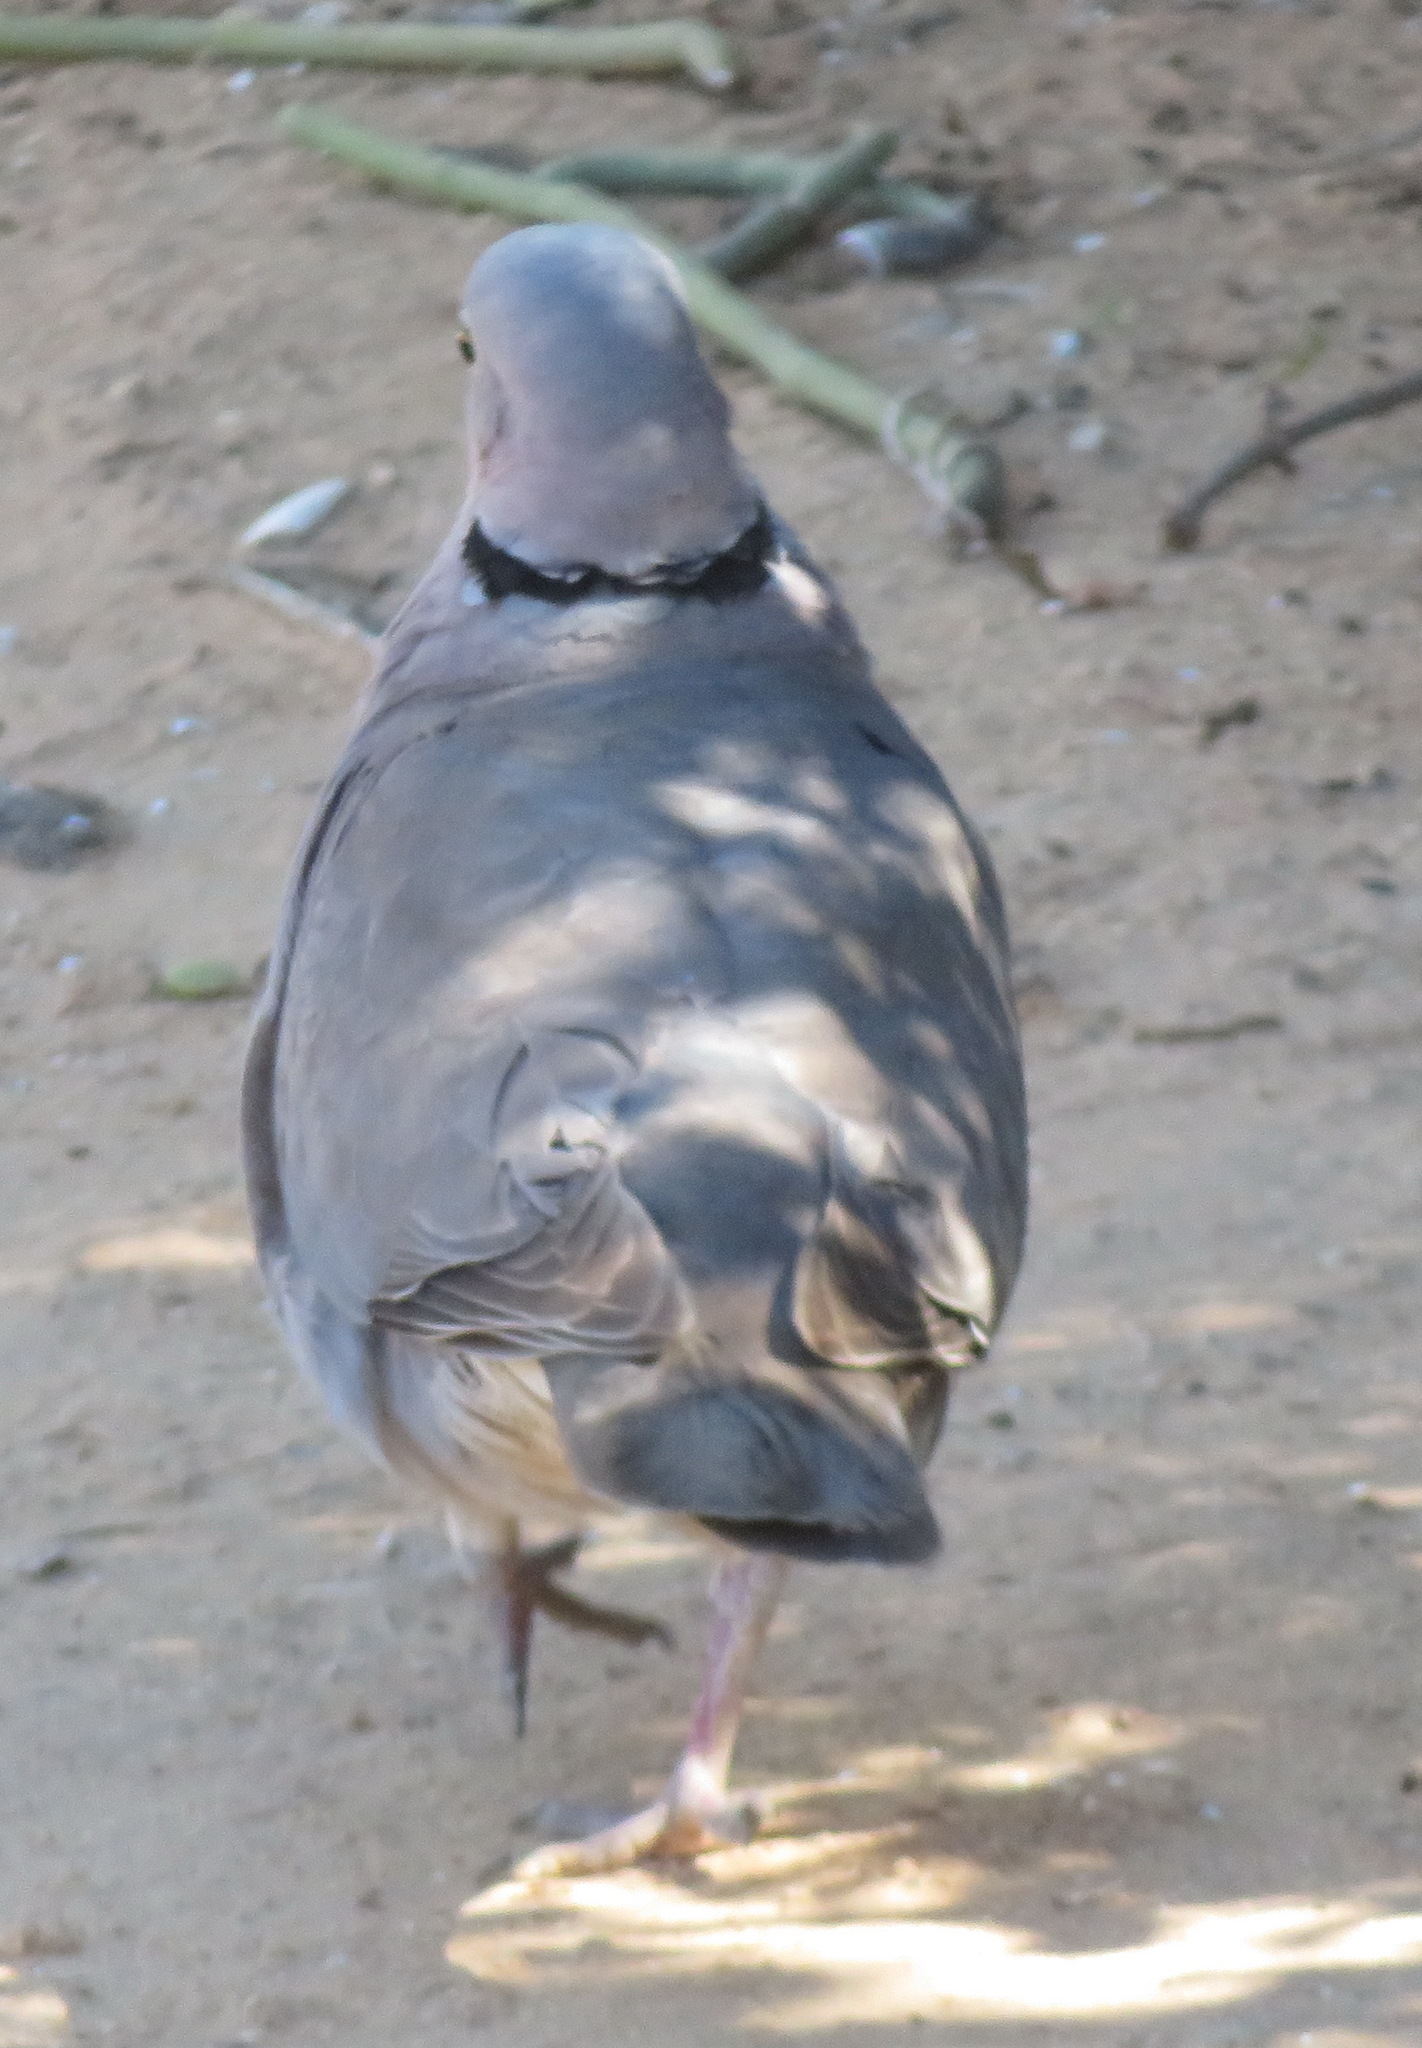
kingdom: Animalia
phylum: Chordata
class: Aves
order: Columbiformes
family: Columbidae
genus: Streptopelia
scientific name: Streptopelia capicola
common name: Ring-necked dove
